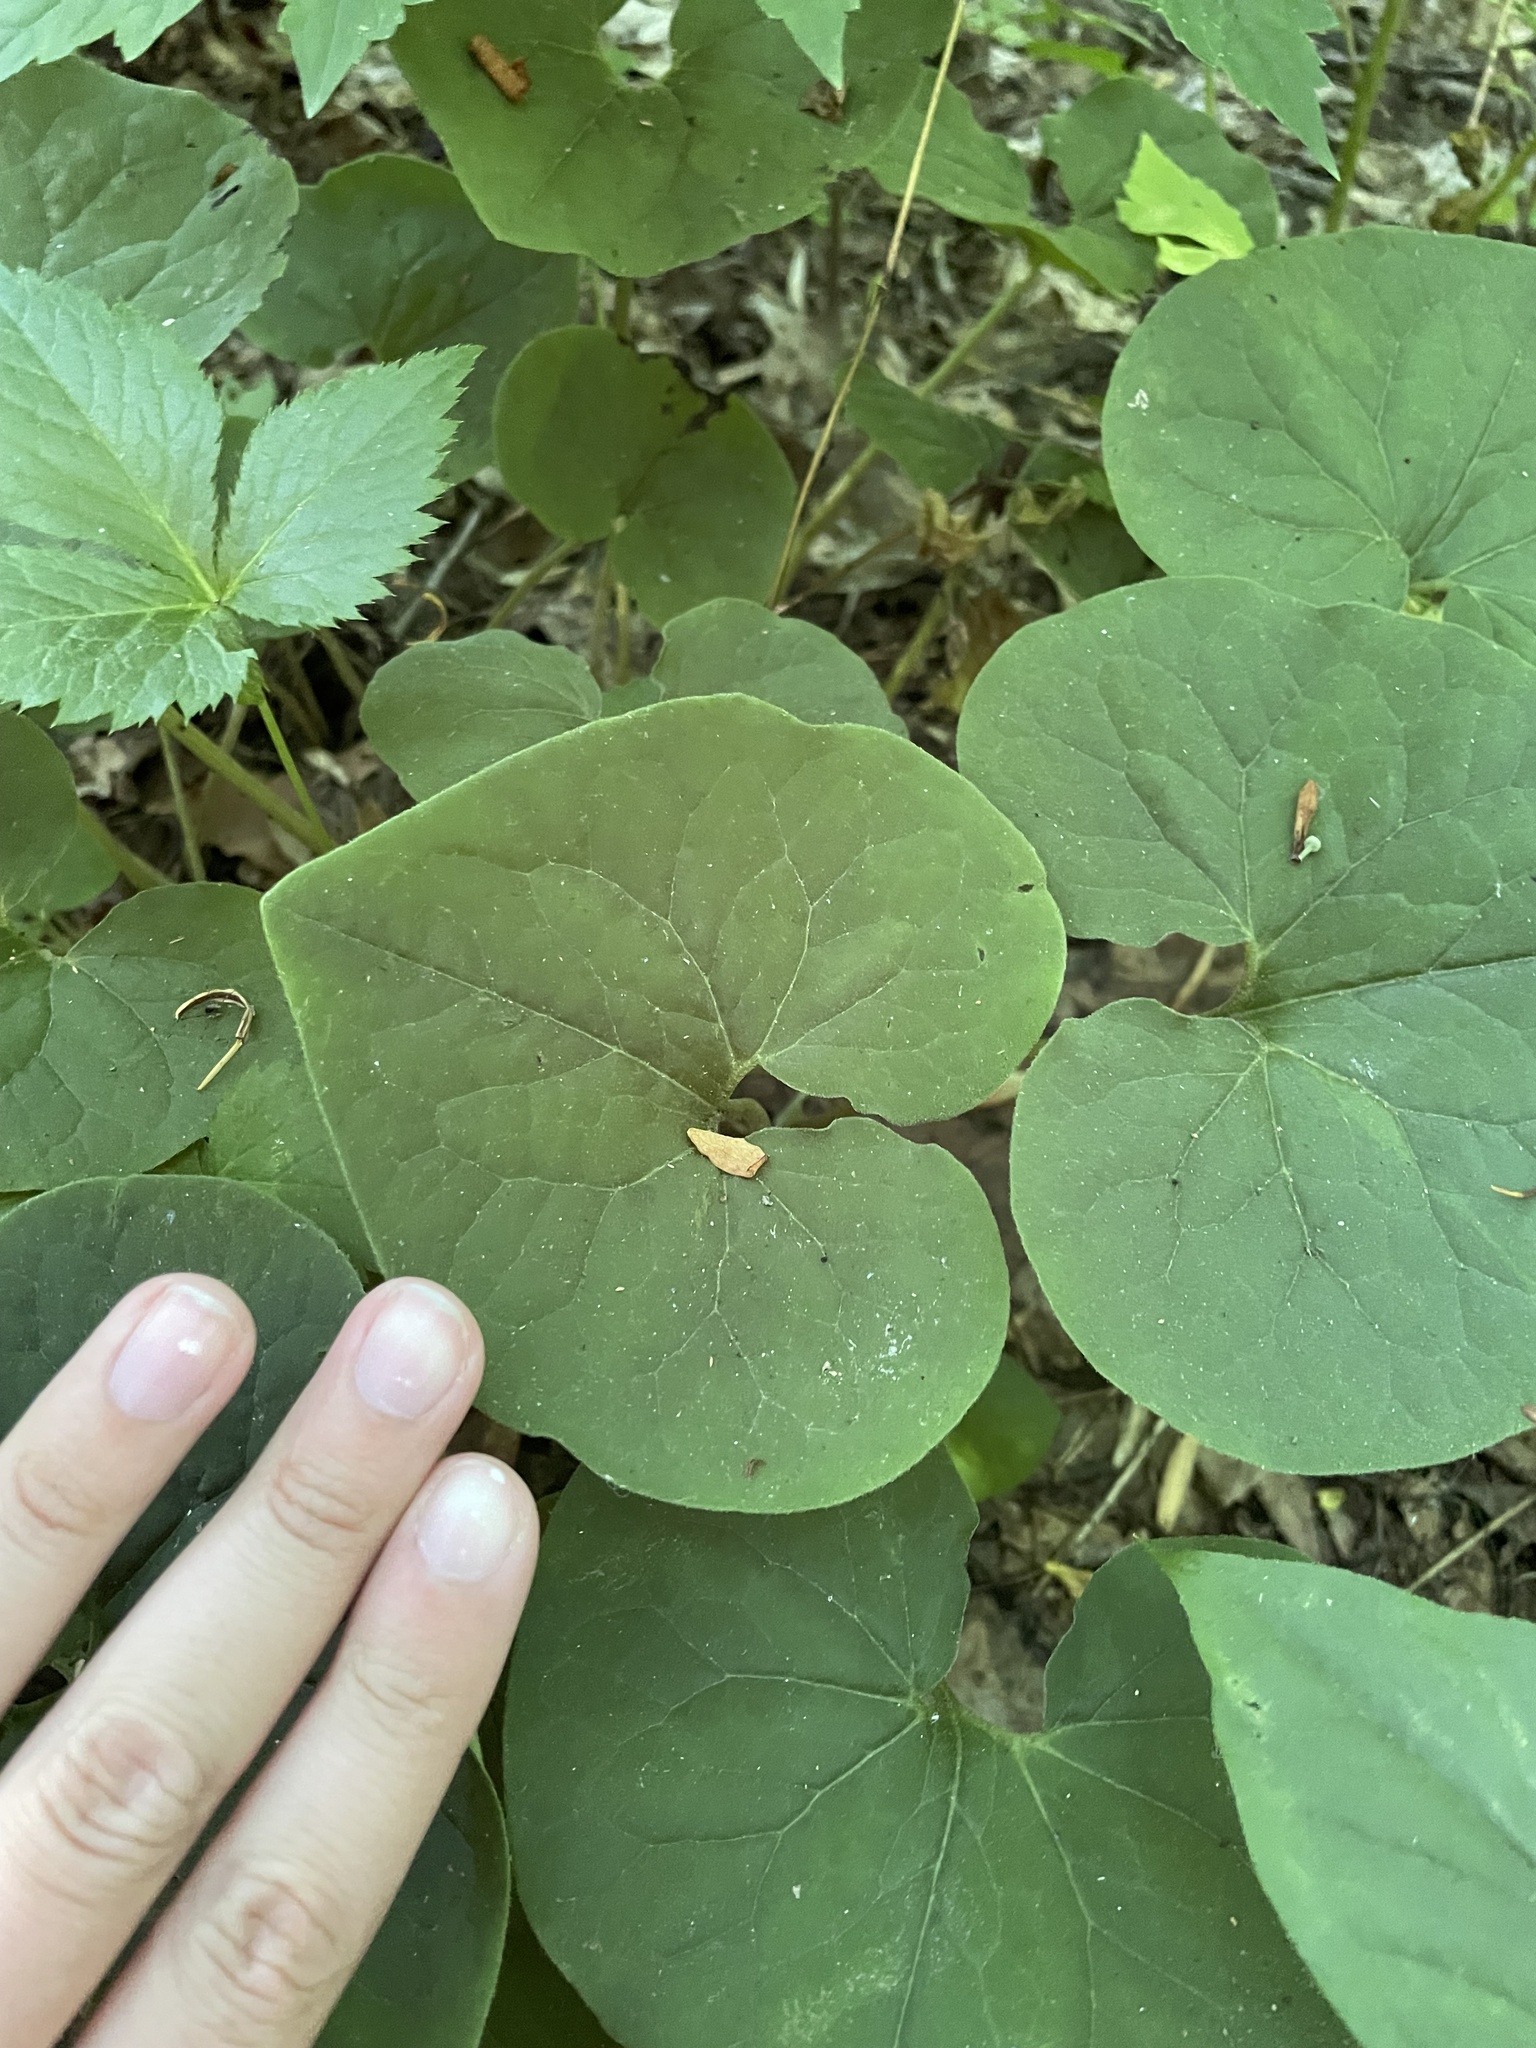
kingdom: Plantae
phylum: Tracheophyta
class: Magnoliopsida
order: Piperales
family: Aristolochiaceae
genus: Asarum
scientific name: Asarum canadense
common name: Wild ginger
